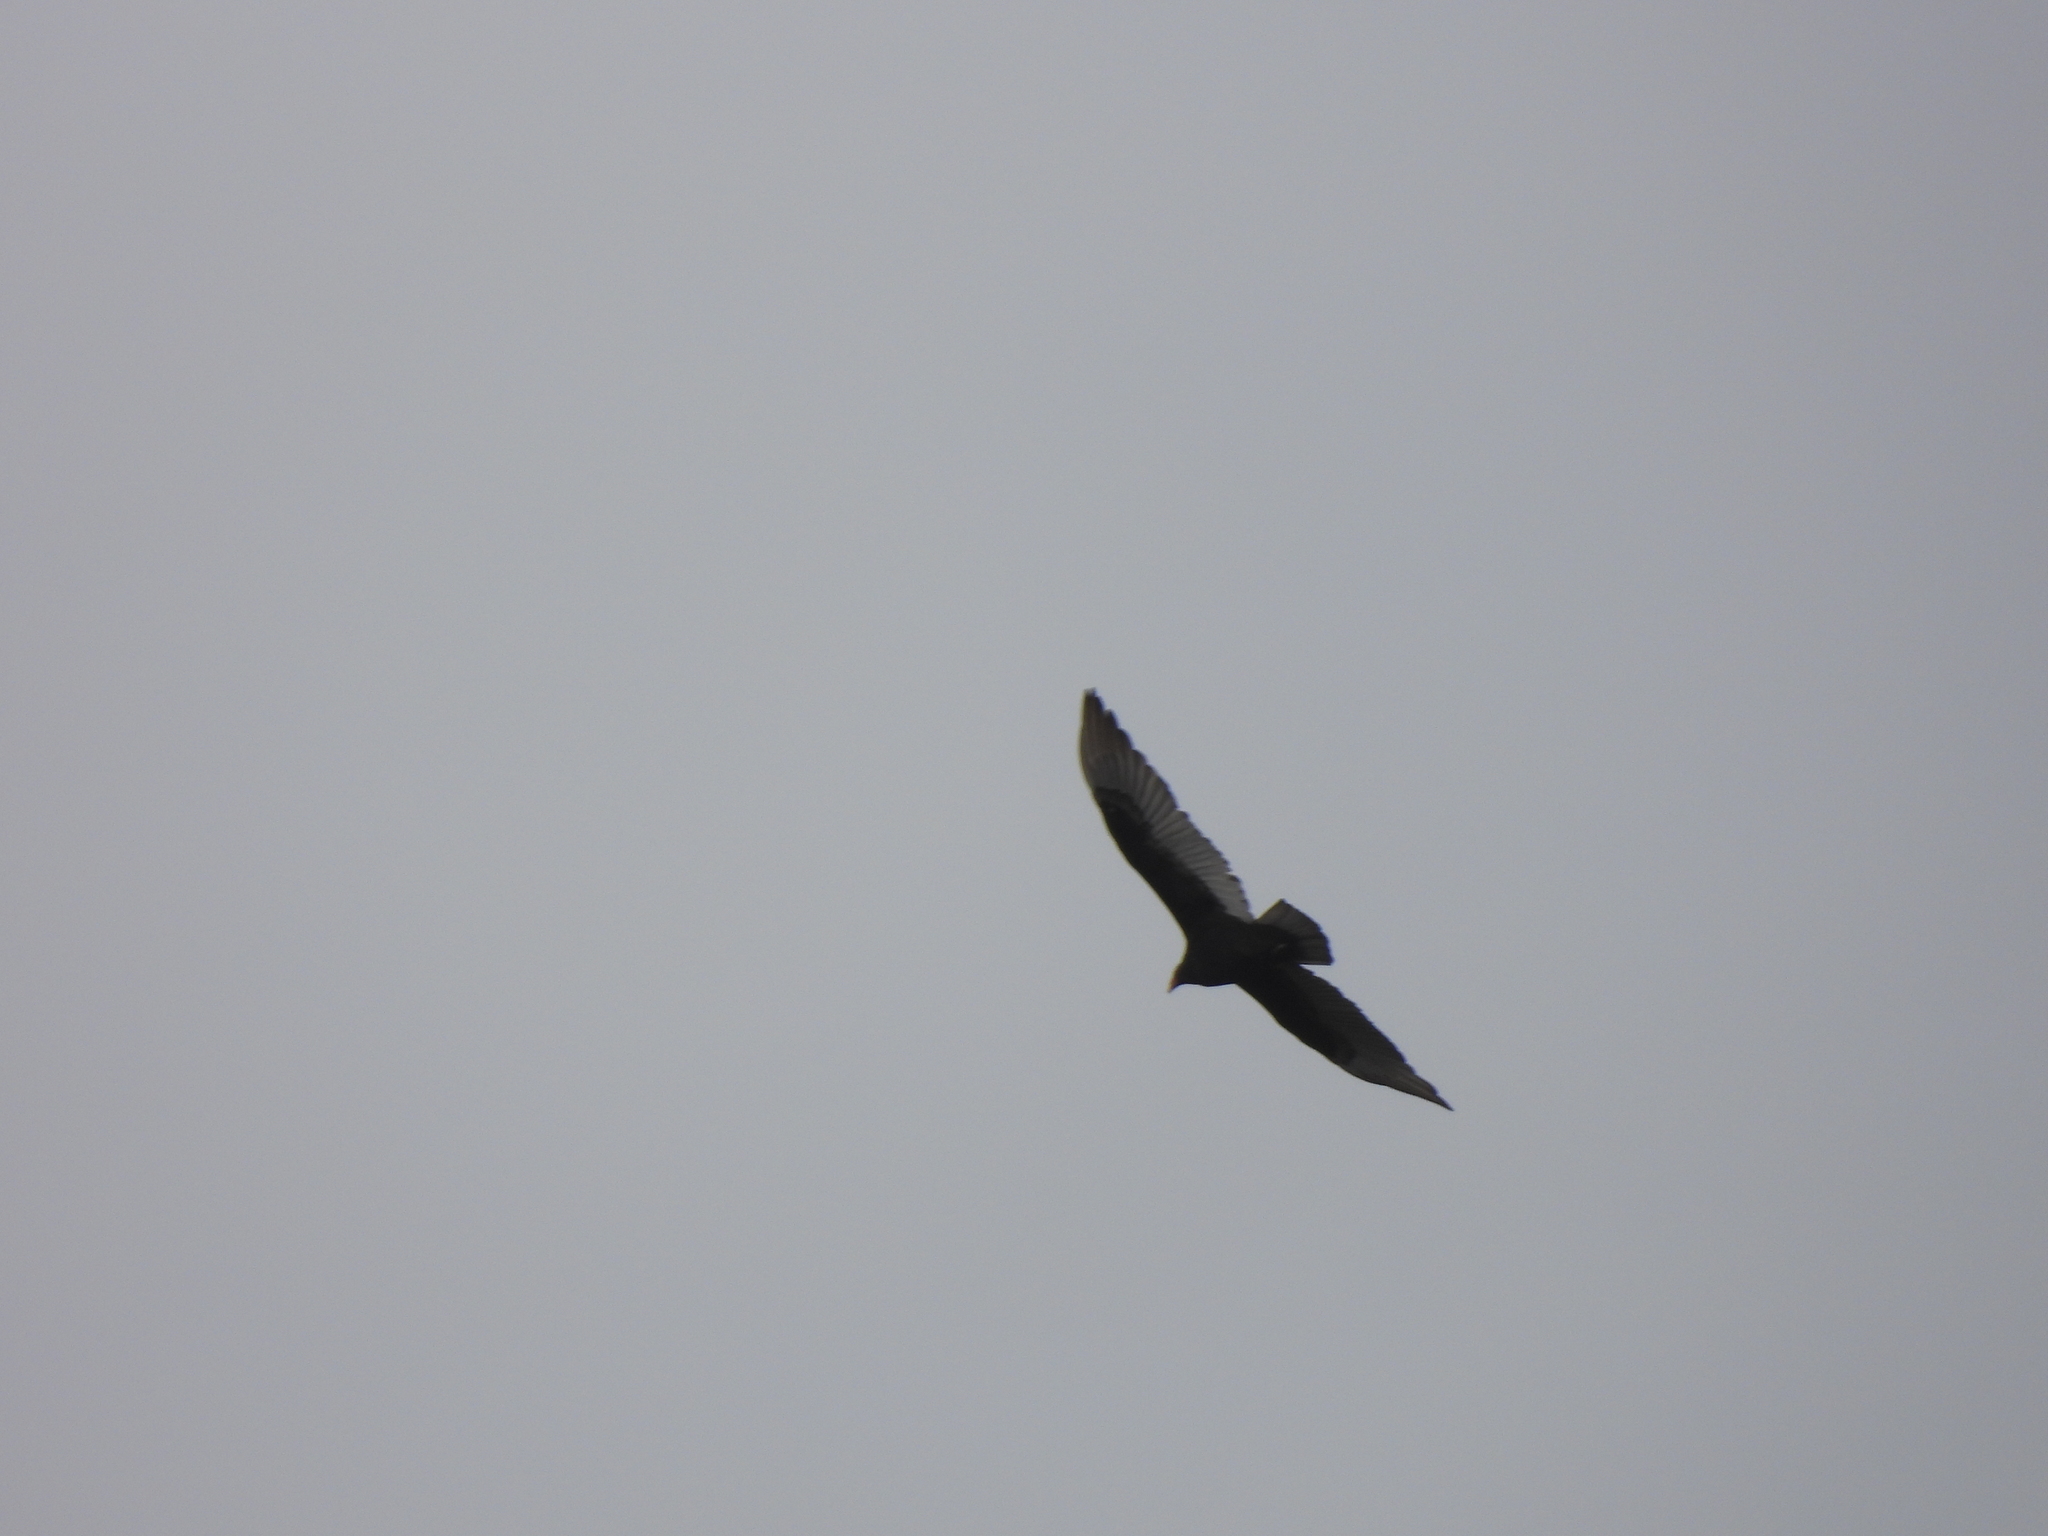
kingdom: Animalia
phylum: Chordata
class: Aves
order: Accipitriformes
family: Cathartidae
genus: Cathartes
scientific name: Cathartes aura
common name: Turkey vulture
